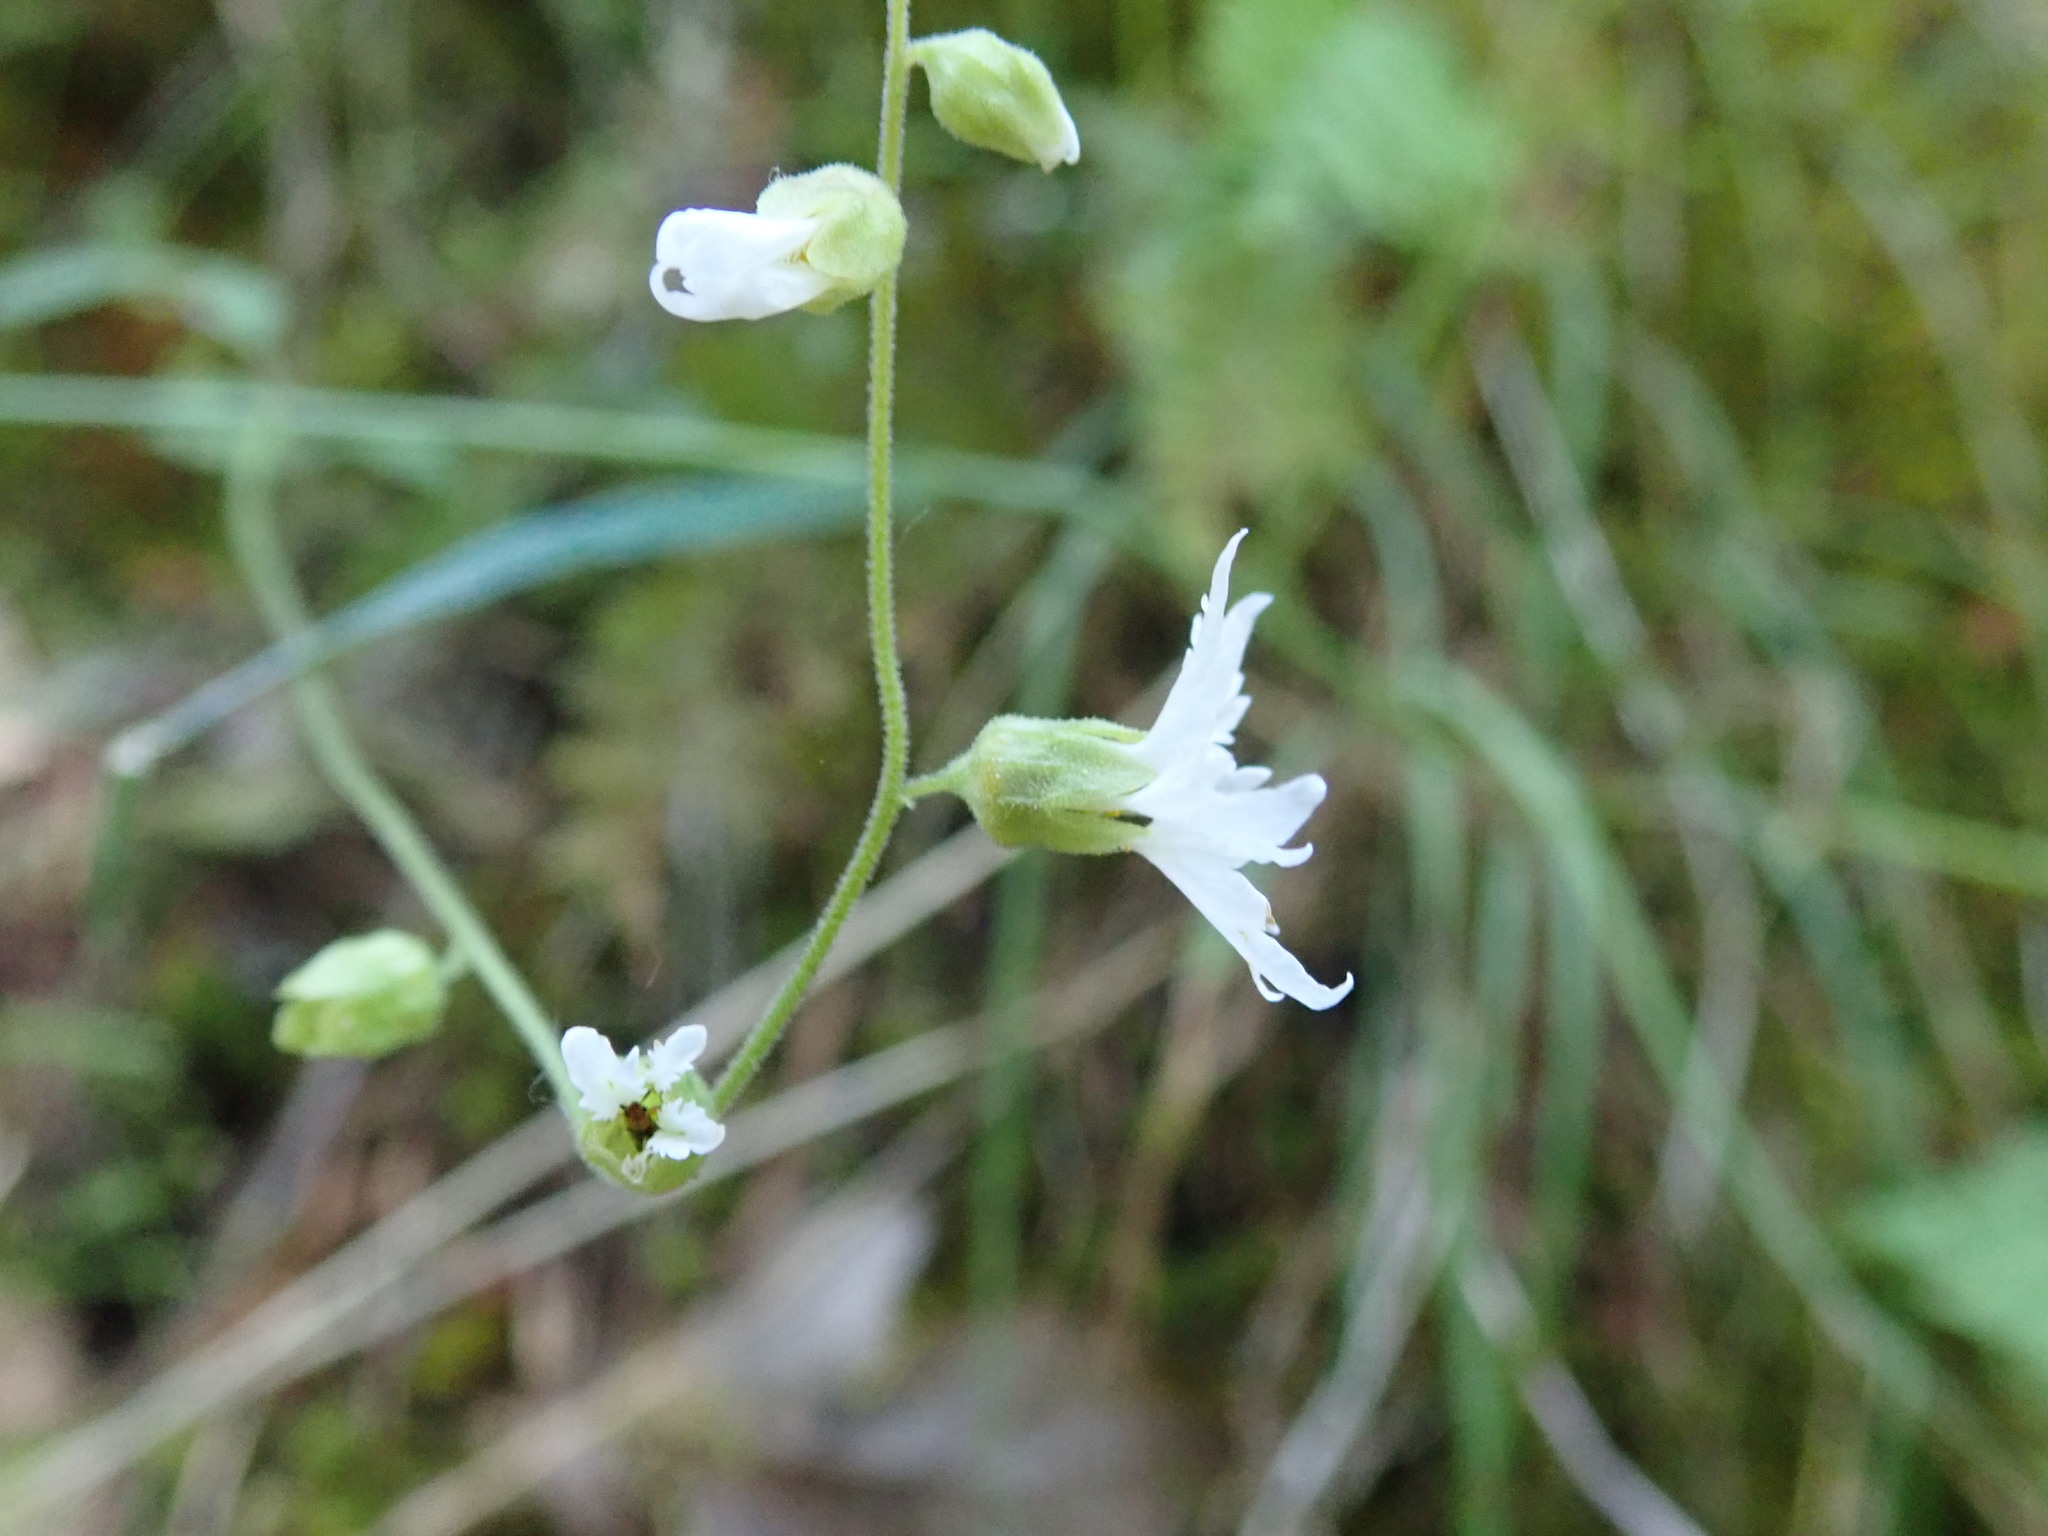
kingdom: Plantae
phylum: Tracheophyta
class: Magnoliopsida
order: Saxifragales
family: Saxifragaceae
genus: Lithophragma
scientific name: Lithophragma heterophyllum
